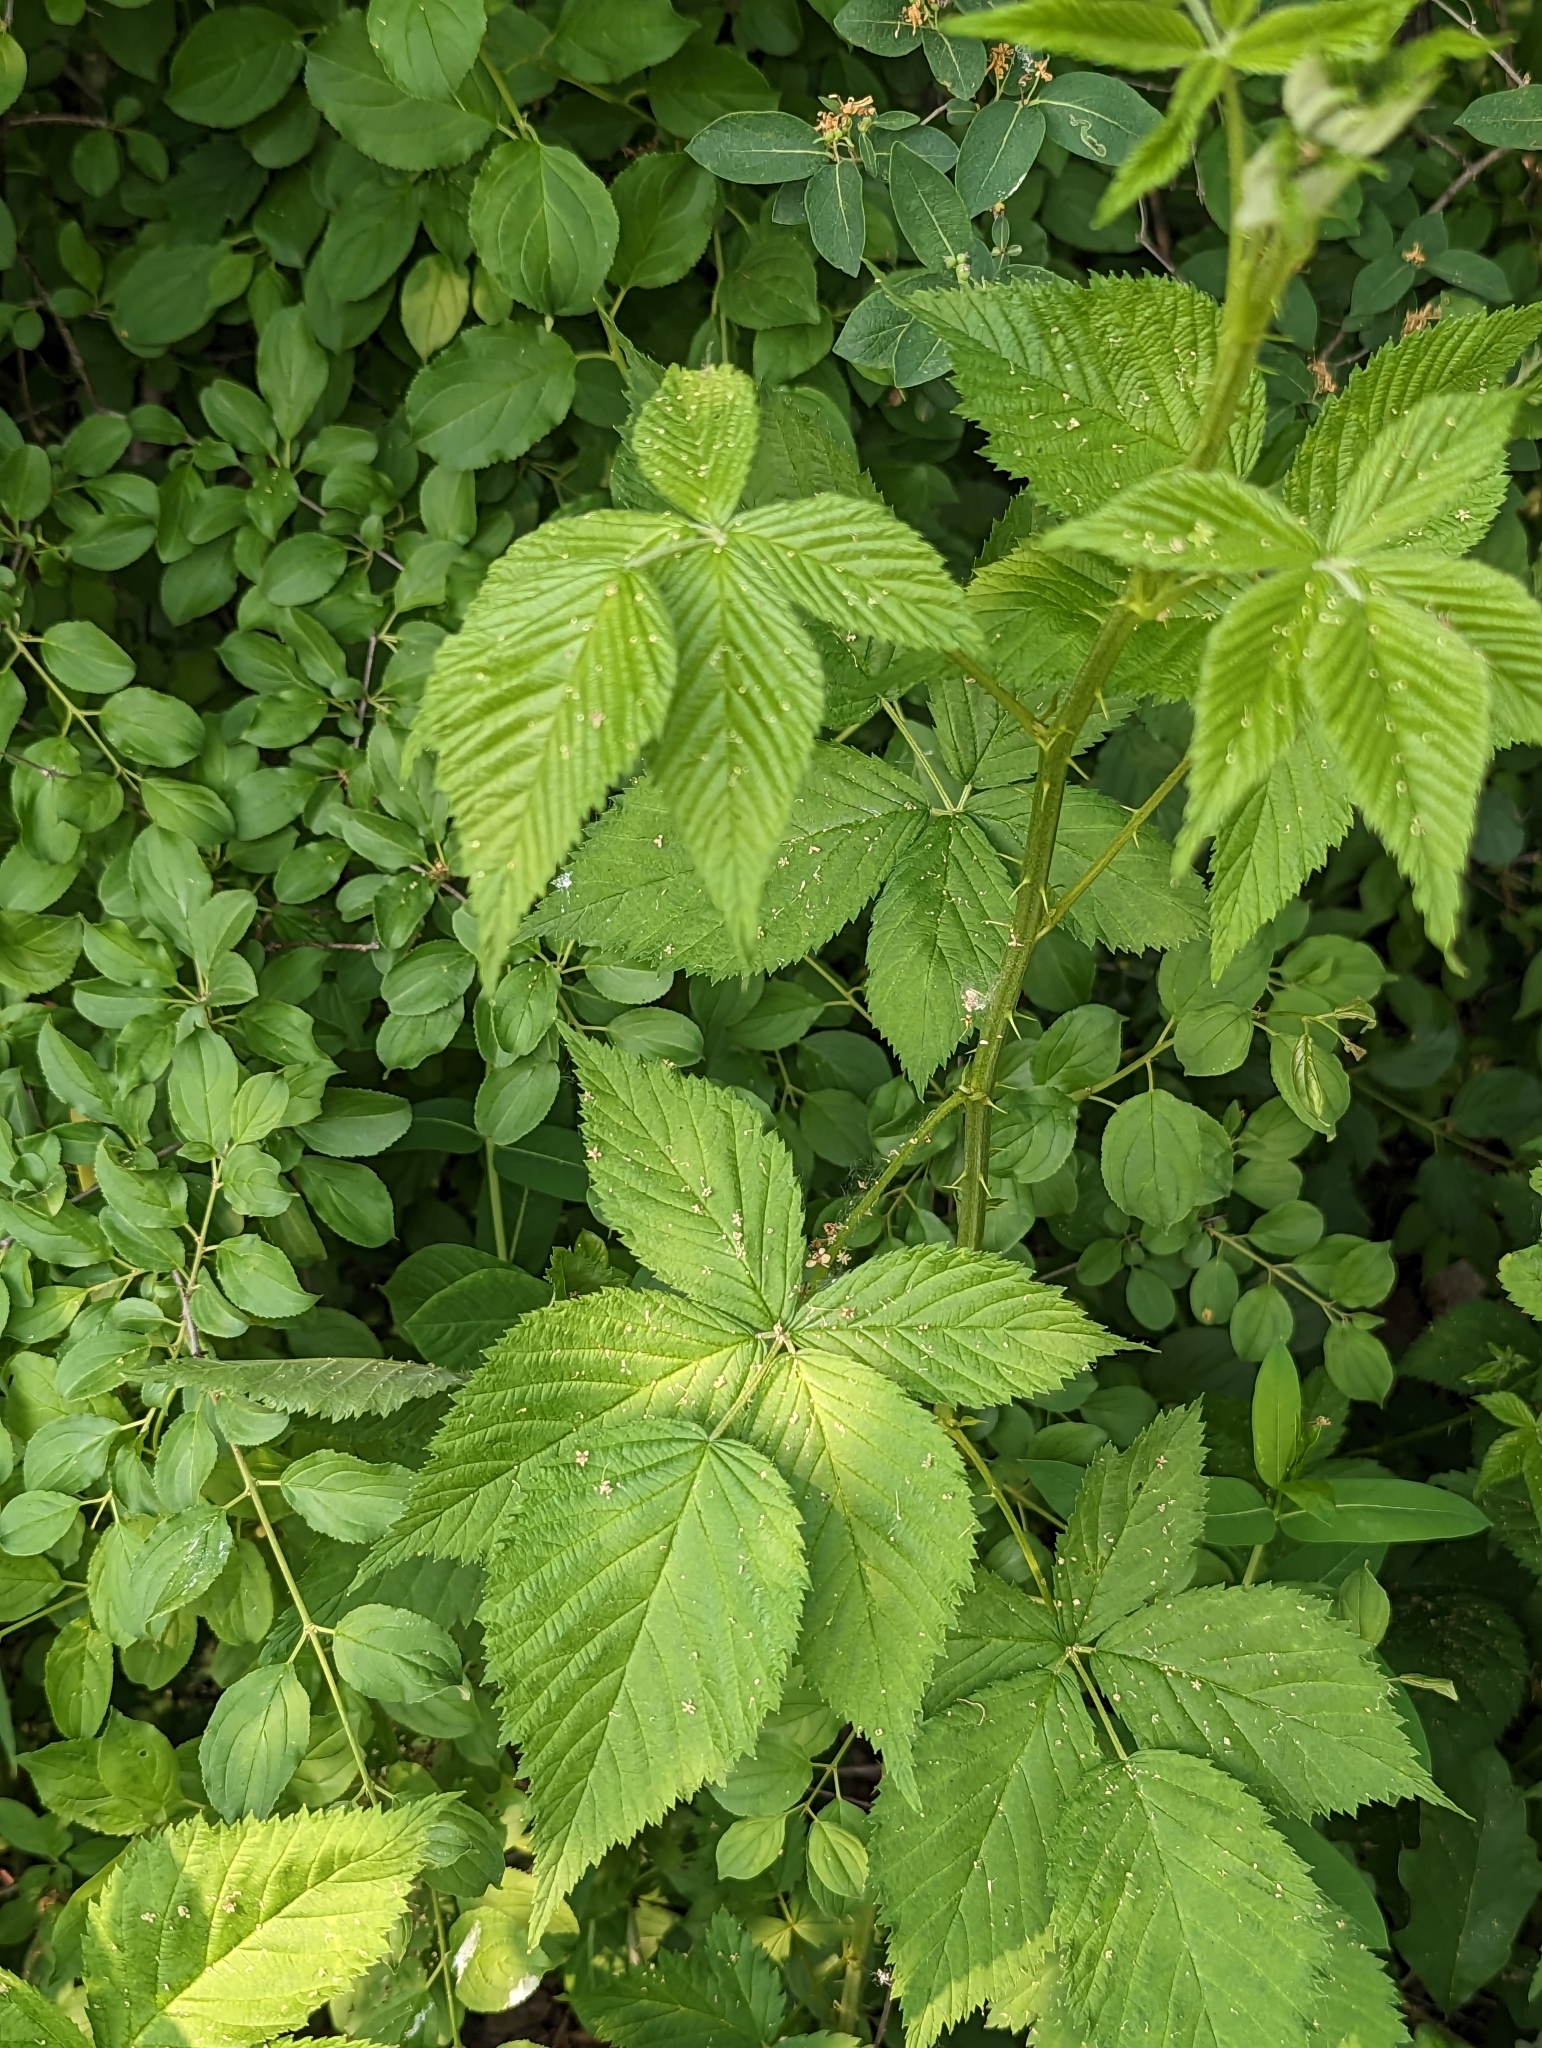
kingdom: Plantae
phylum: Tracheophyta
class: Magnoliopsida
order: Rosales
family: Rosaceae
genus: Rubus
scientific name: Rubus allegheniensis
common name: Allegheny blackberry
